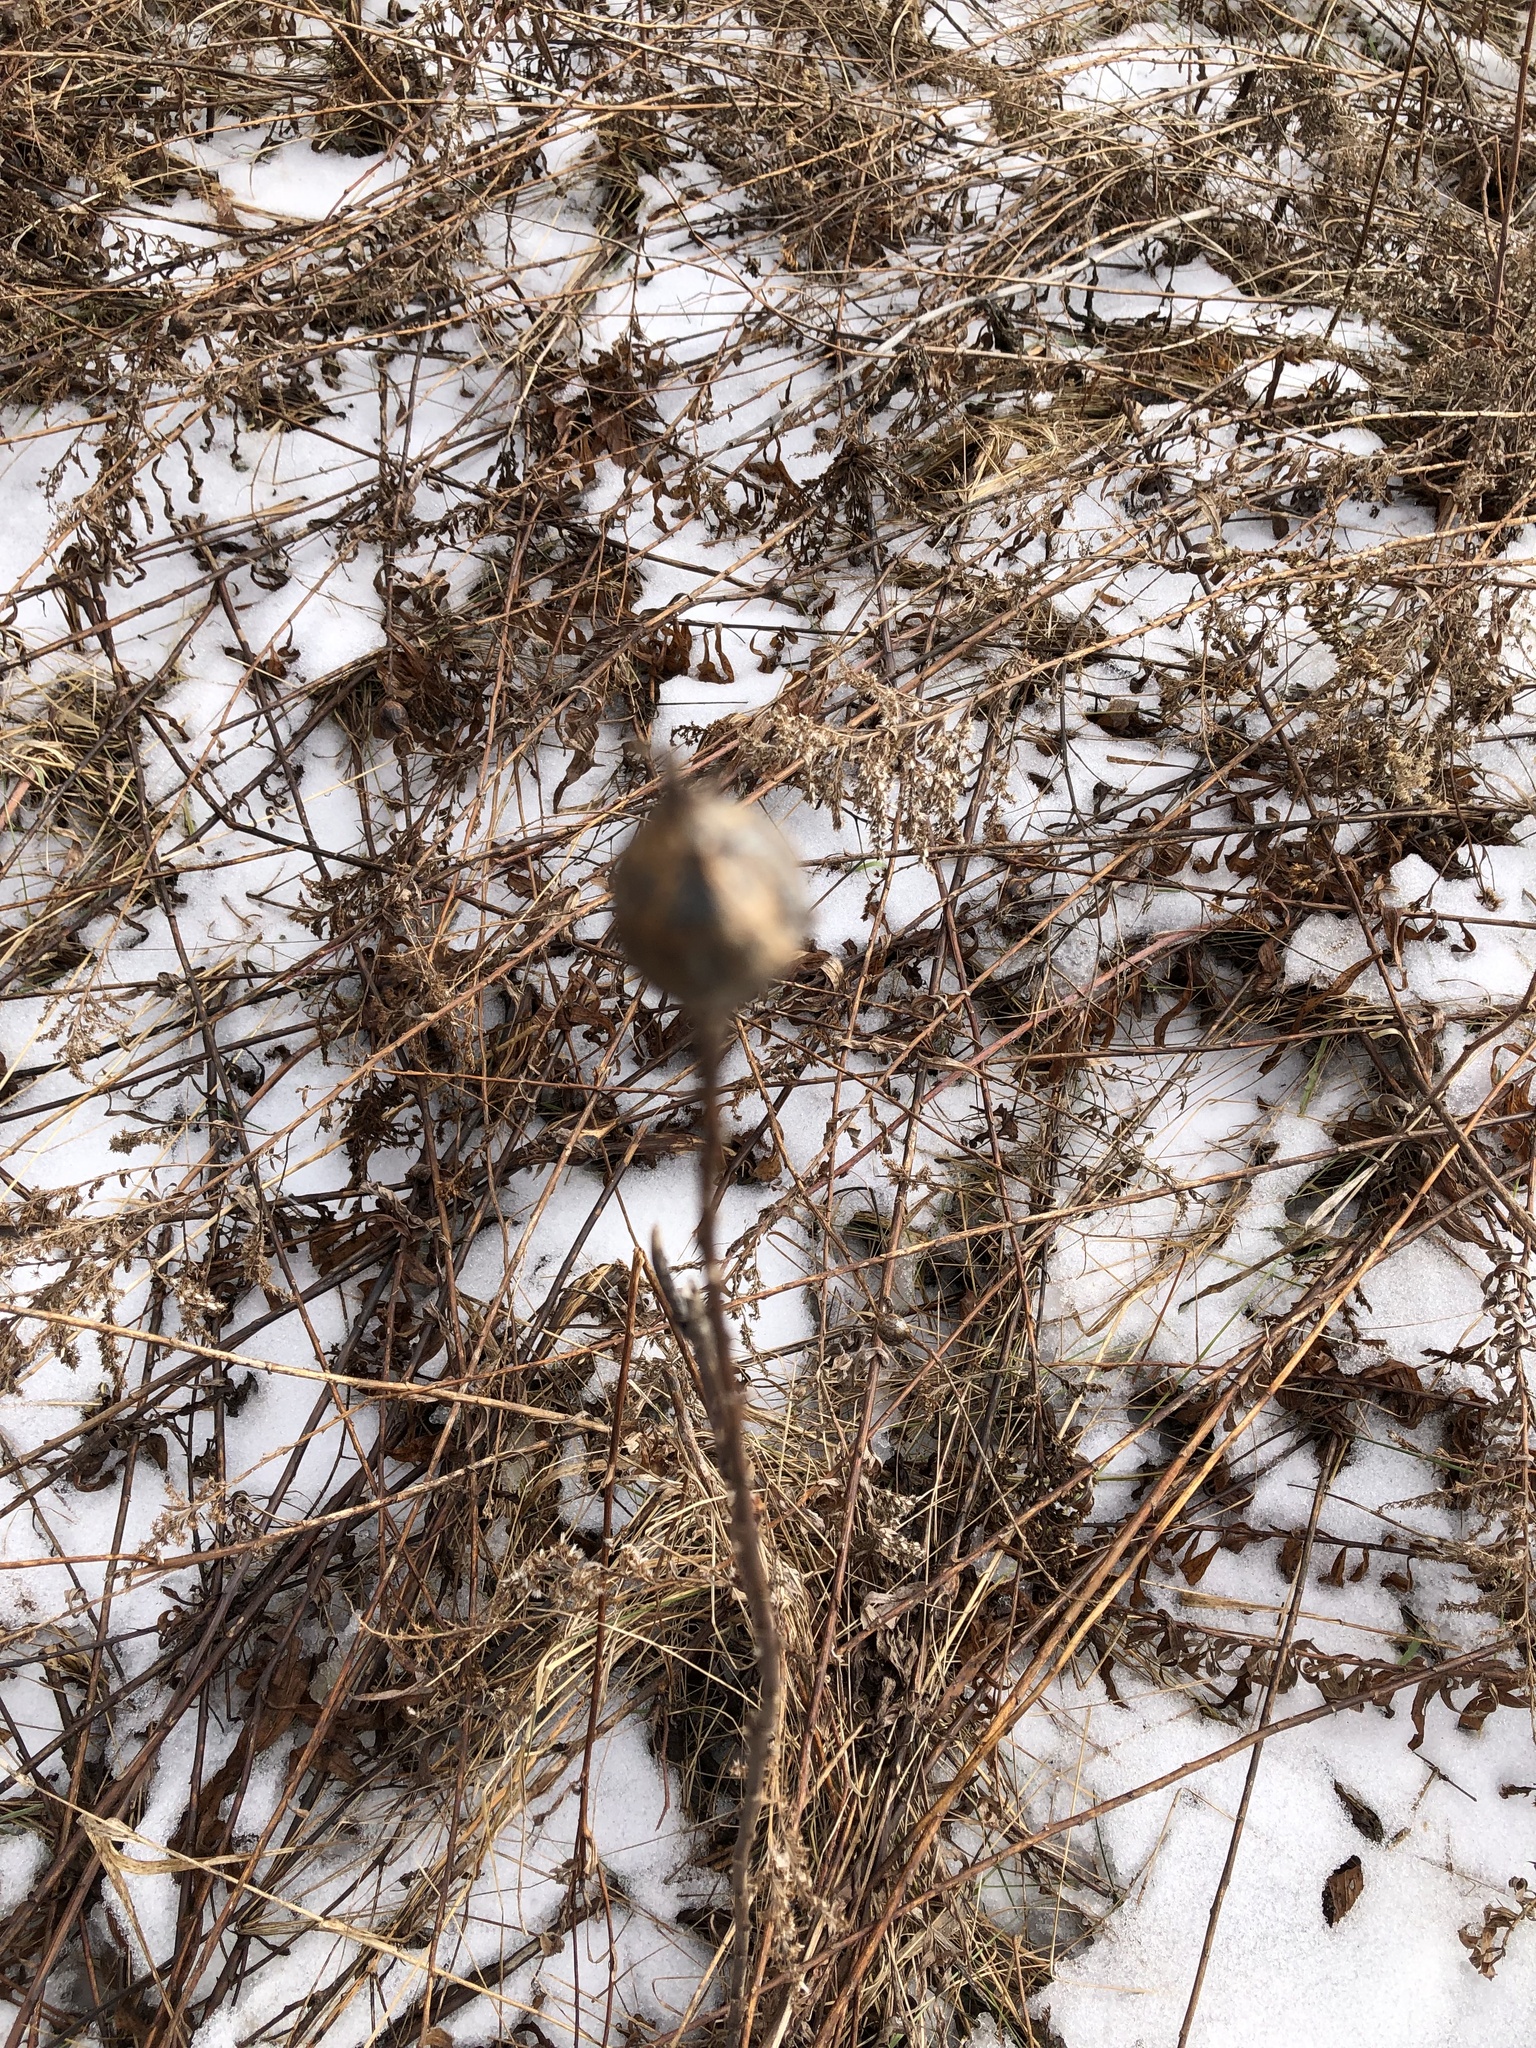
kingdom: Animalia
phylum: Arthropoda
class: Insecta
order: Diptera
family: Tephritidae
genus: Eurosta
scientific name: Eurosta solidaginis
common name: Goldenrod gall fly
